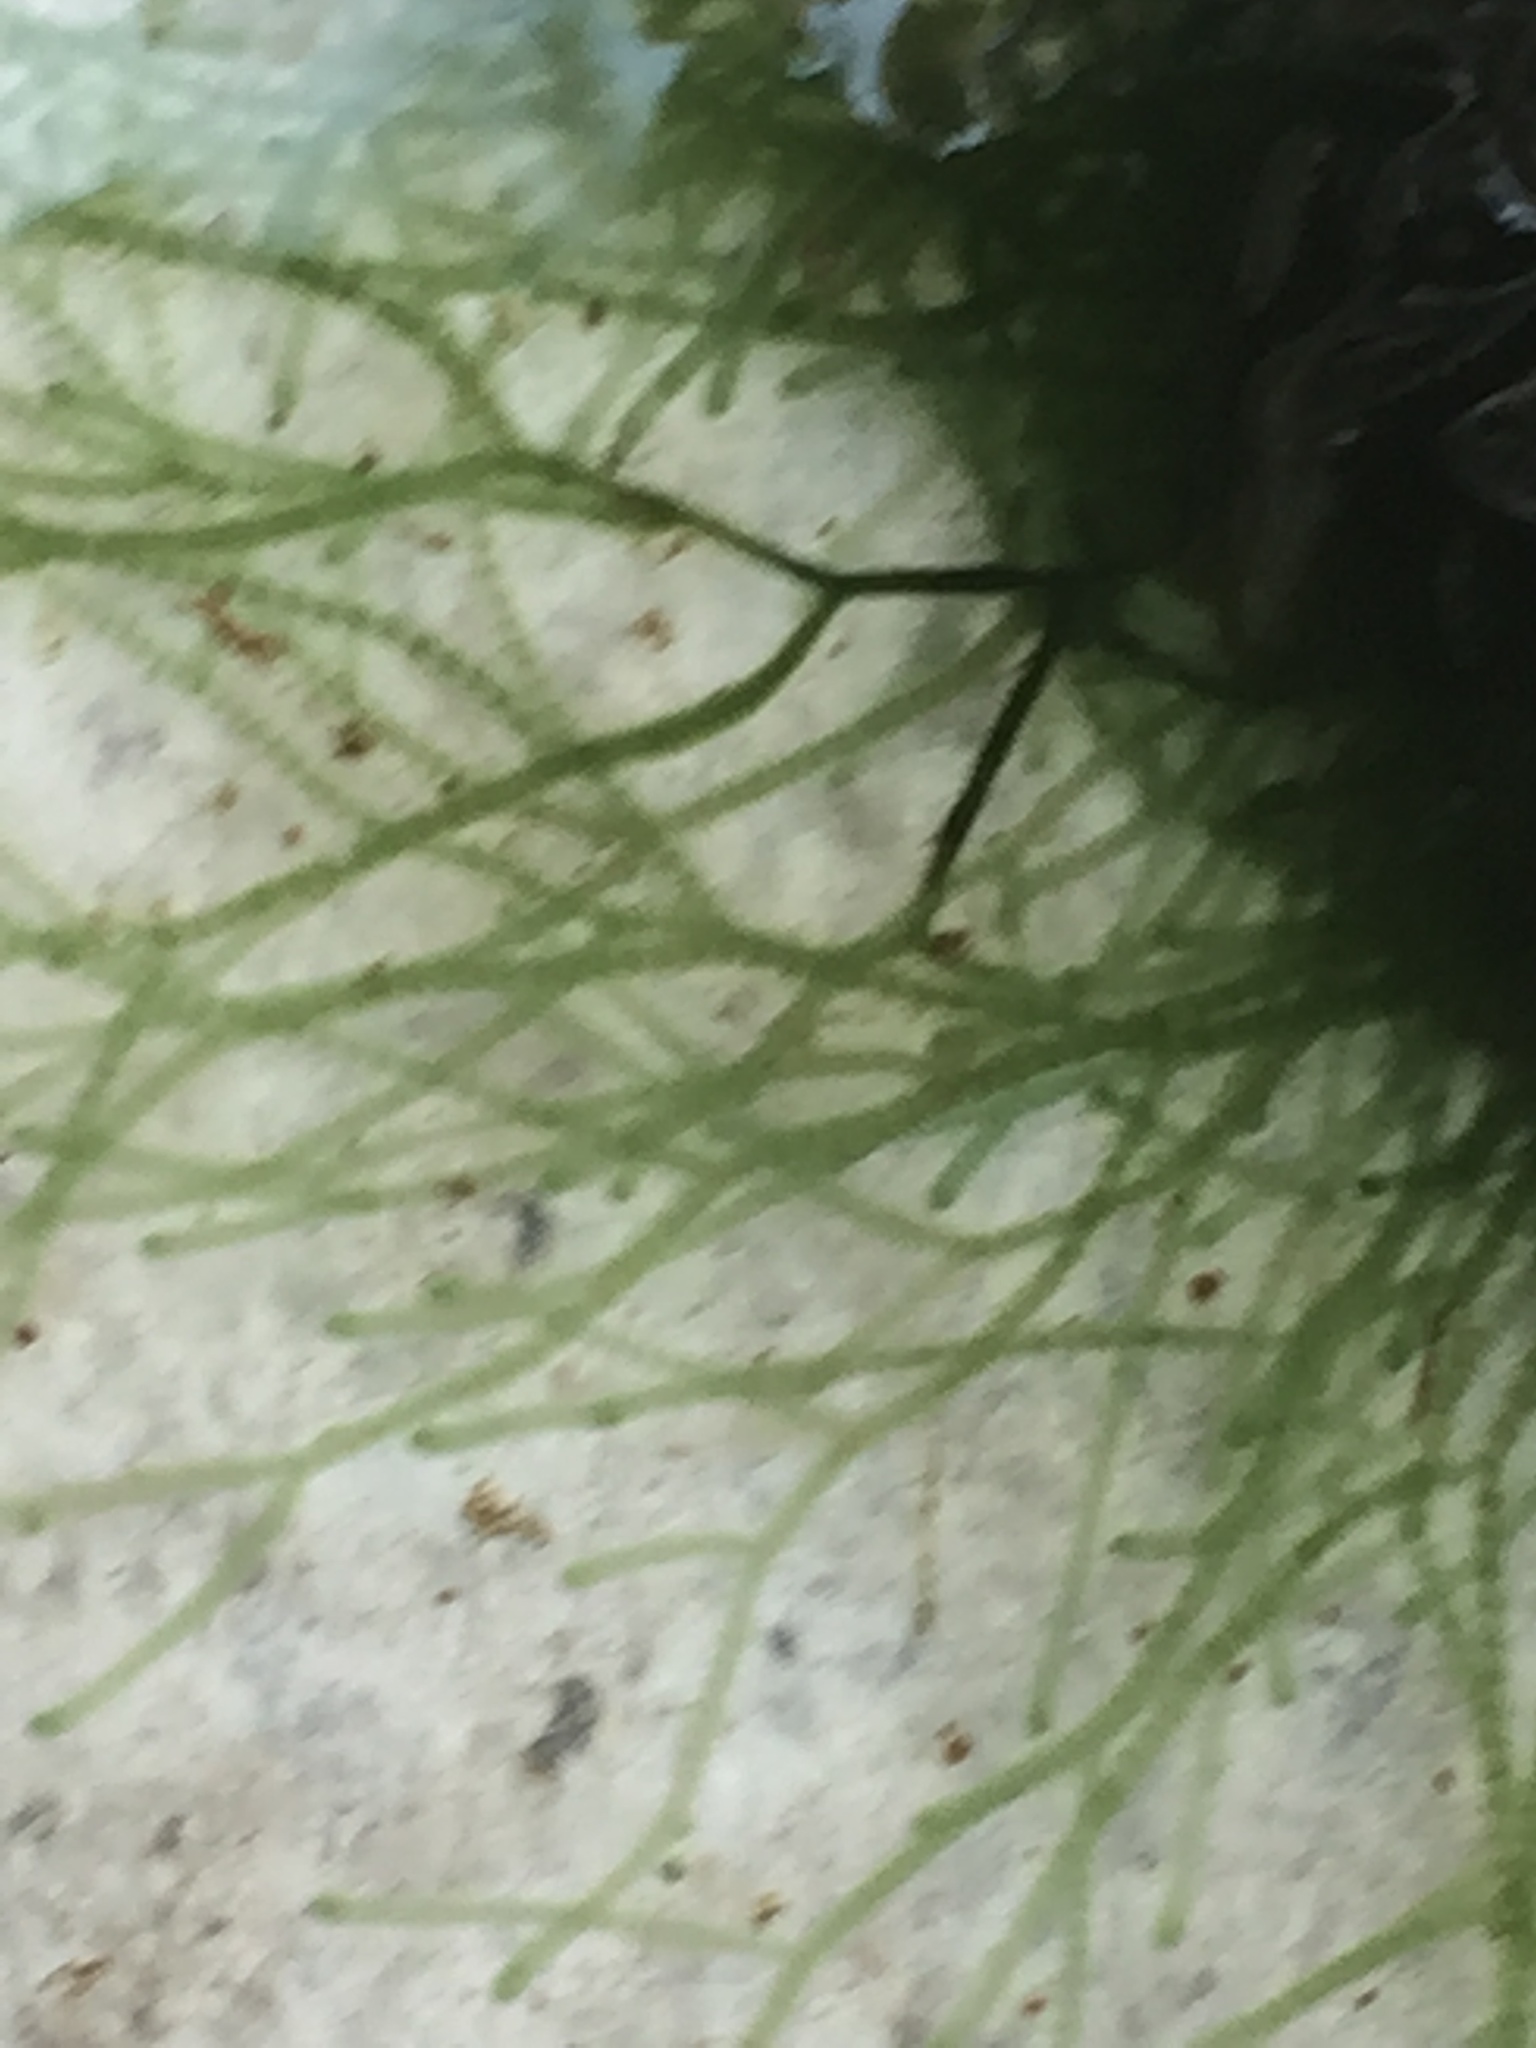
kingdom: Plantae
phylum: Rhodophyta
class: Florideophyceae
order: Batrachospermales
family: Batrachospermaceae
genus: Paludicola
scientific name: Paludicola
